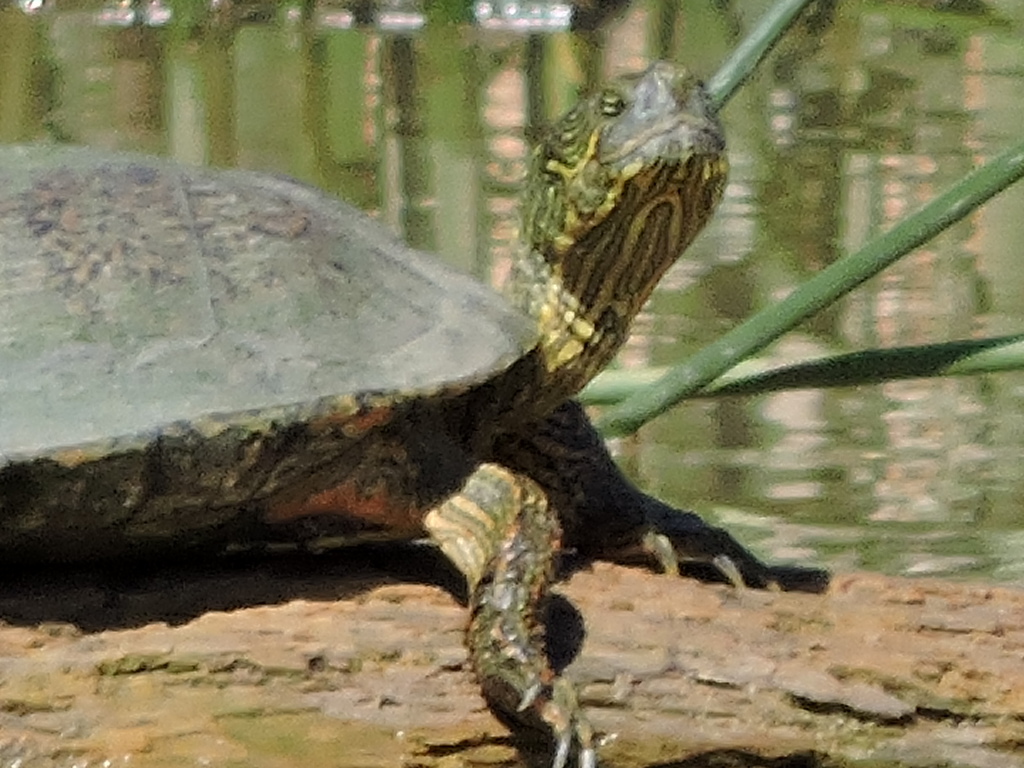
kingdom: Animalia
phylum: Chordata
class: Testudines
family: Emydidae
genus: Pseudemys
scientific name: Pseudemys texana
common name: Texas river cooter
